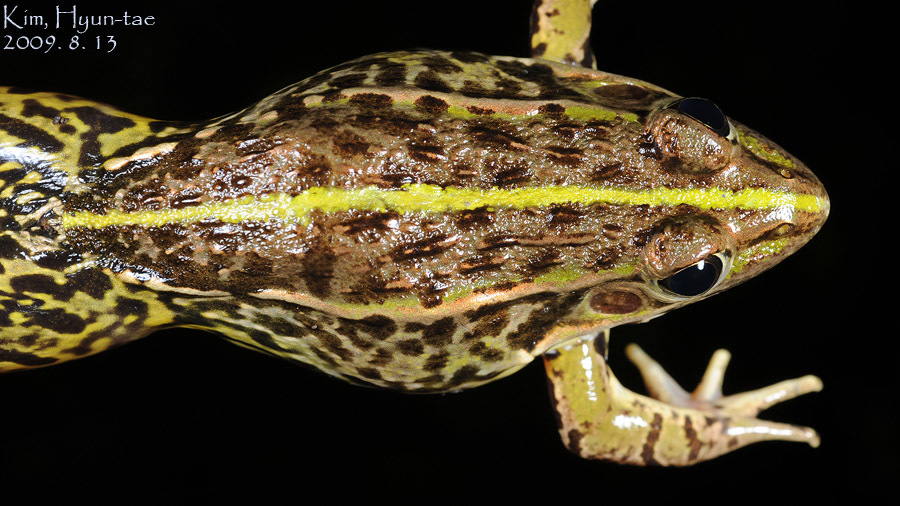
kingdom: Animalia
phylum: Chordata
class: Amphibia
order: Anura
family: Ranidae
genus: Pelophylax
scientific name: Pelophylax nigromaculatus
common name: Black-spotted pond frog
